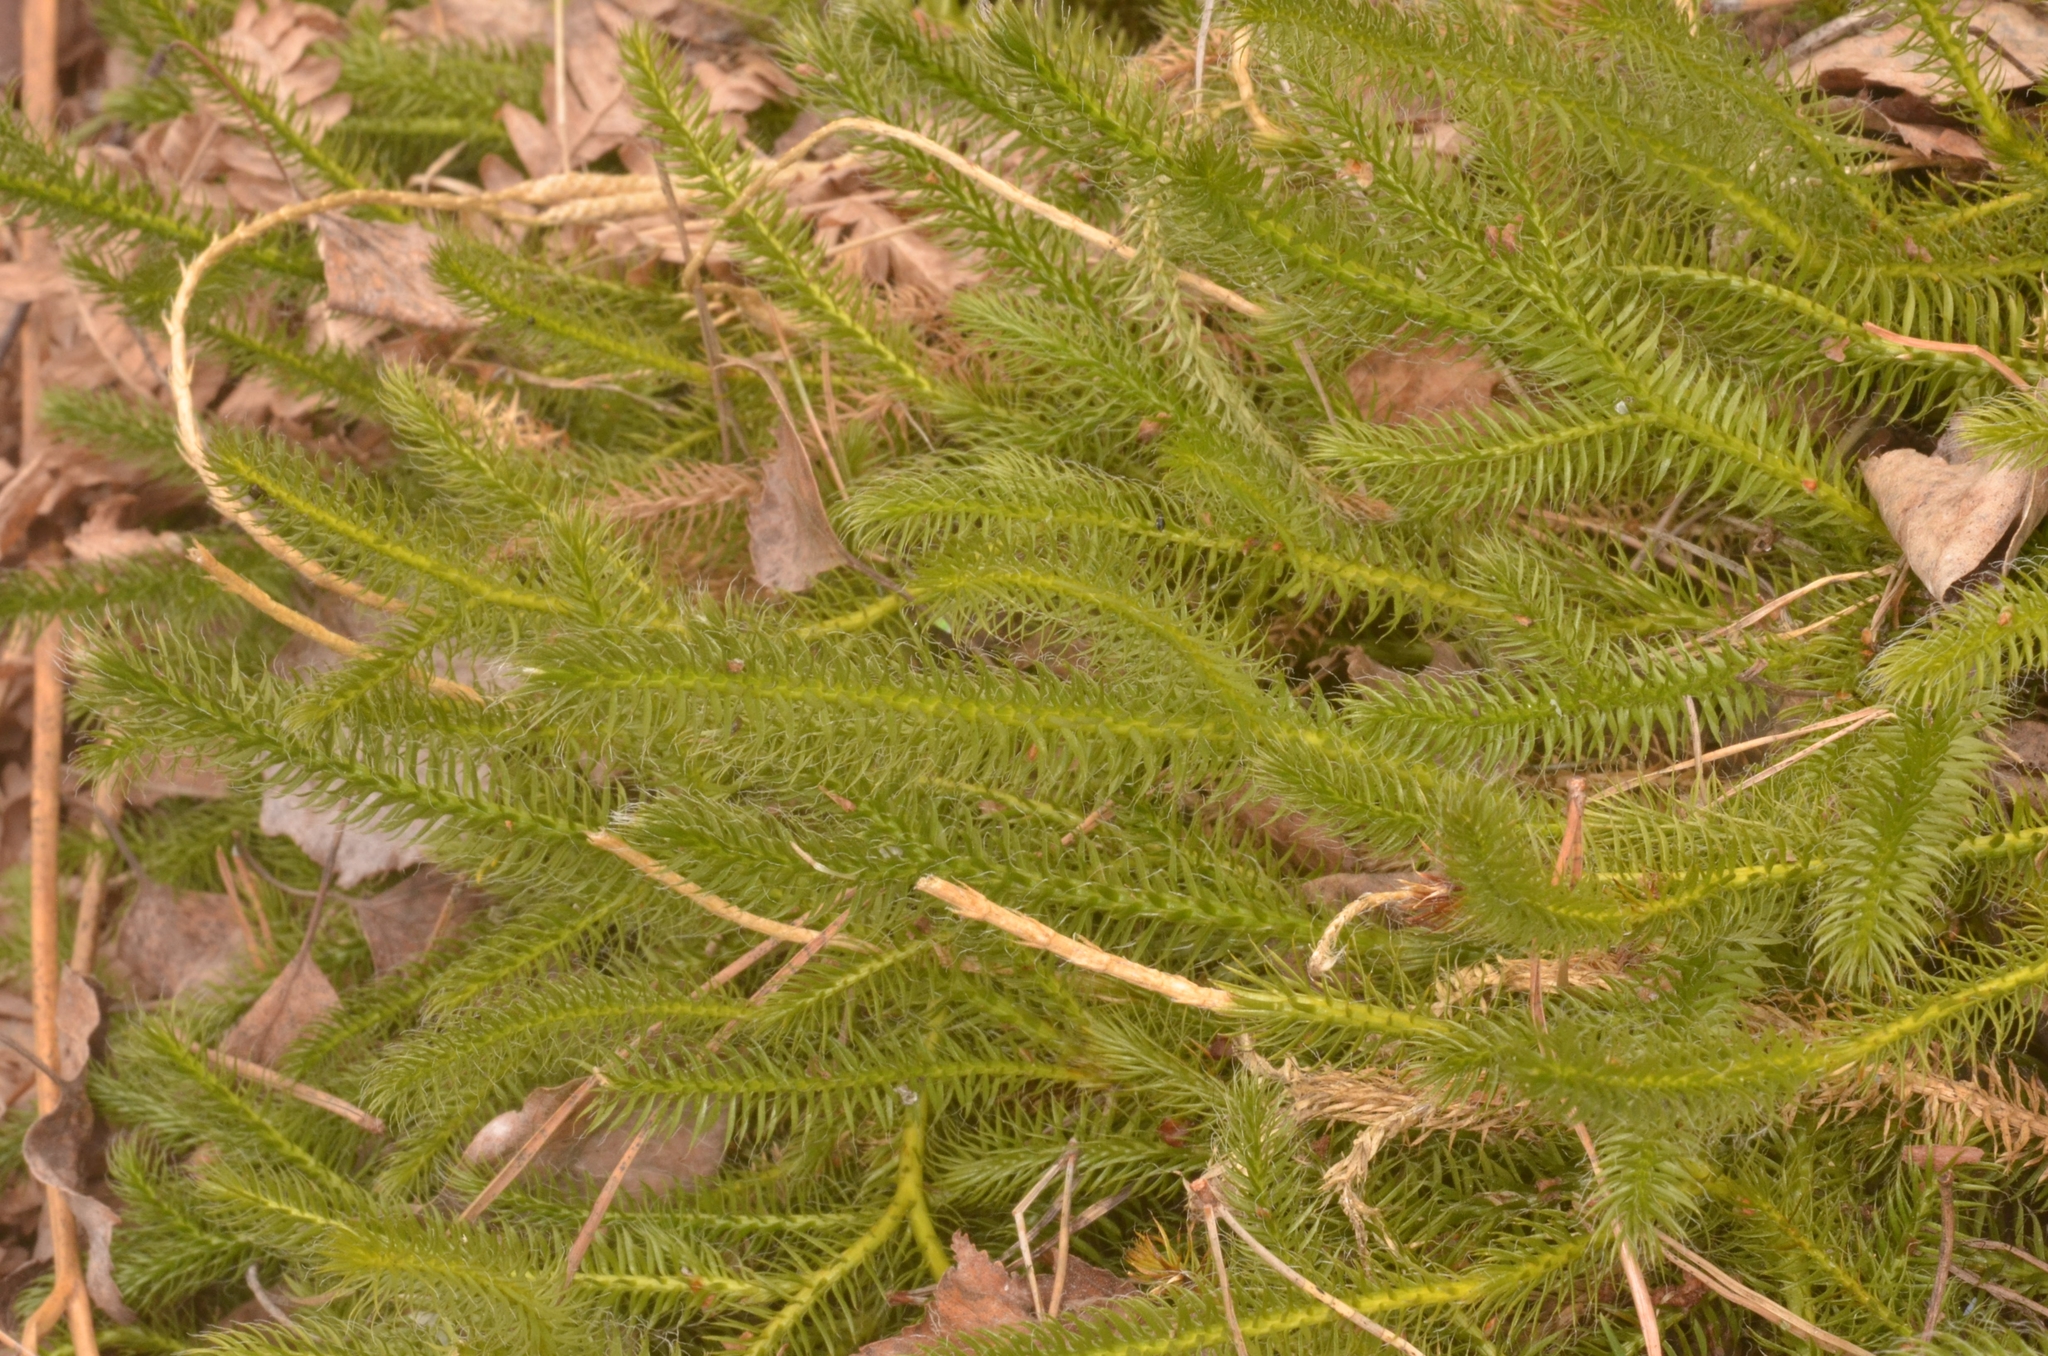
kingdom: Plantae
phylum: Tracheophyta
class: Lycopodiopsida
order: Lycopodiales
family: Lycopodiaceae
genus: Lycopodium
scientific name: Lycopodium clavatum
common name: Stag's-horn clubmoss
